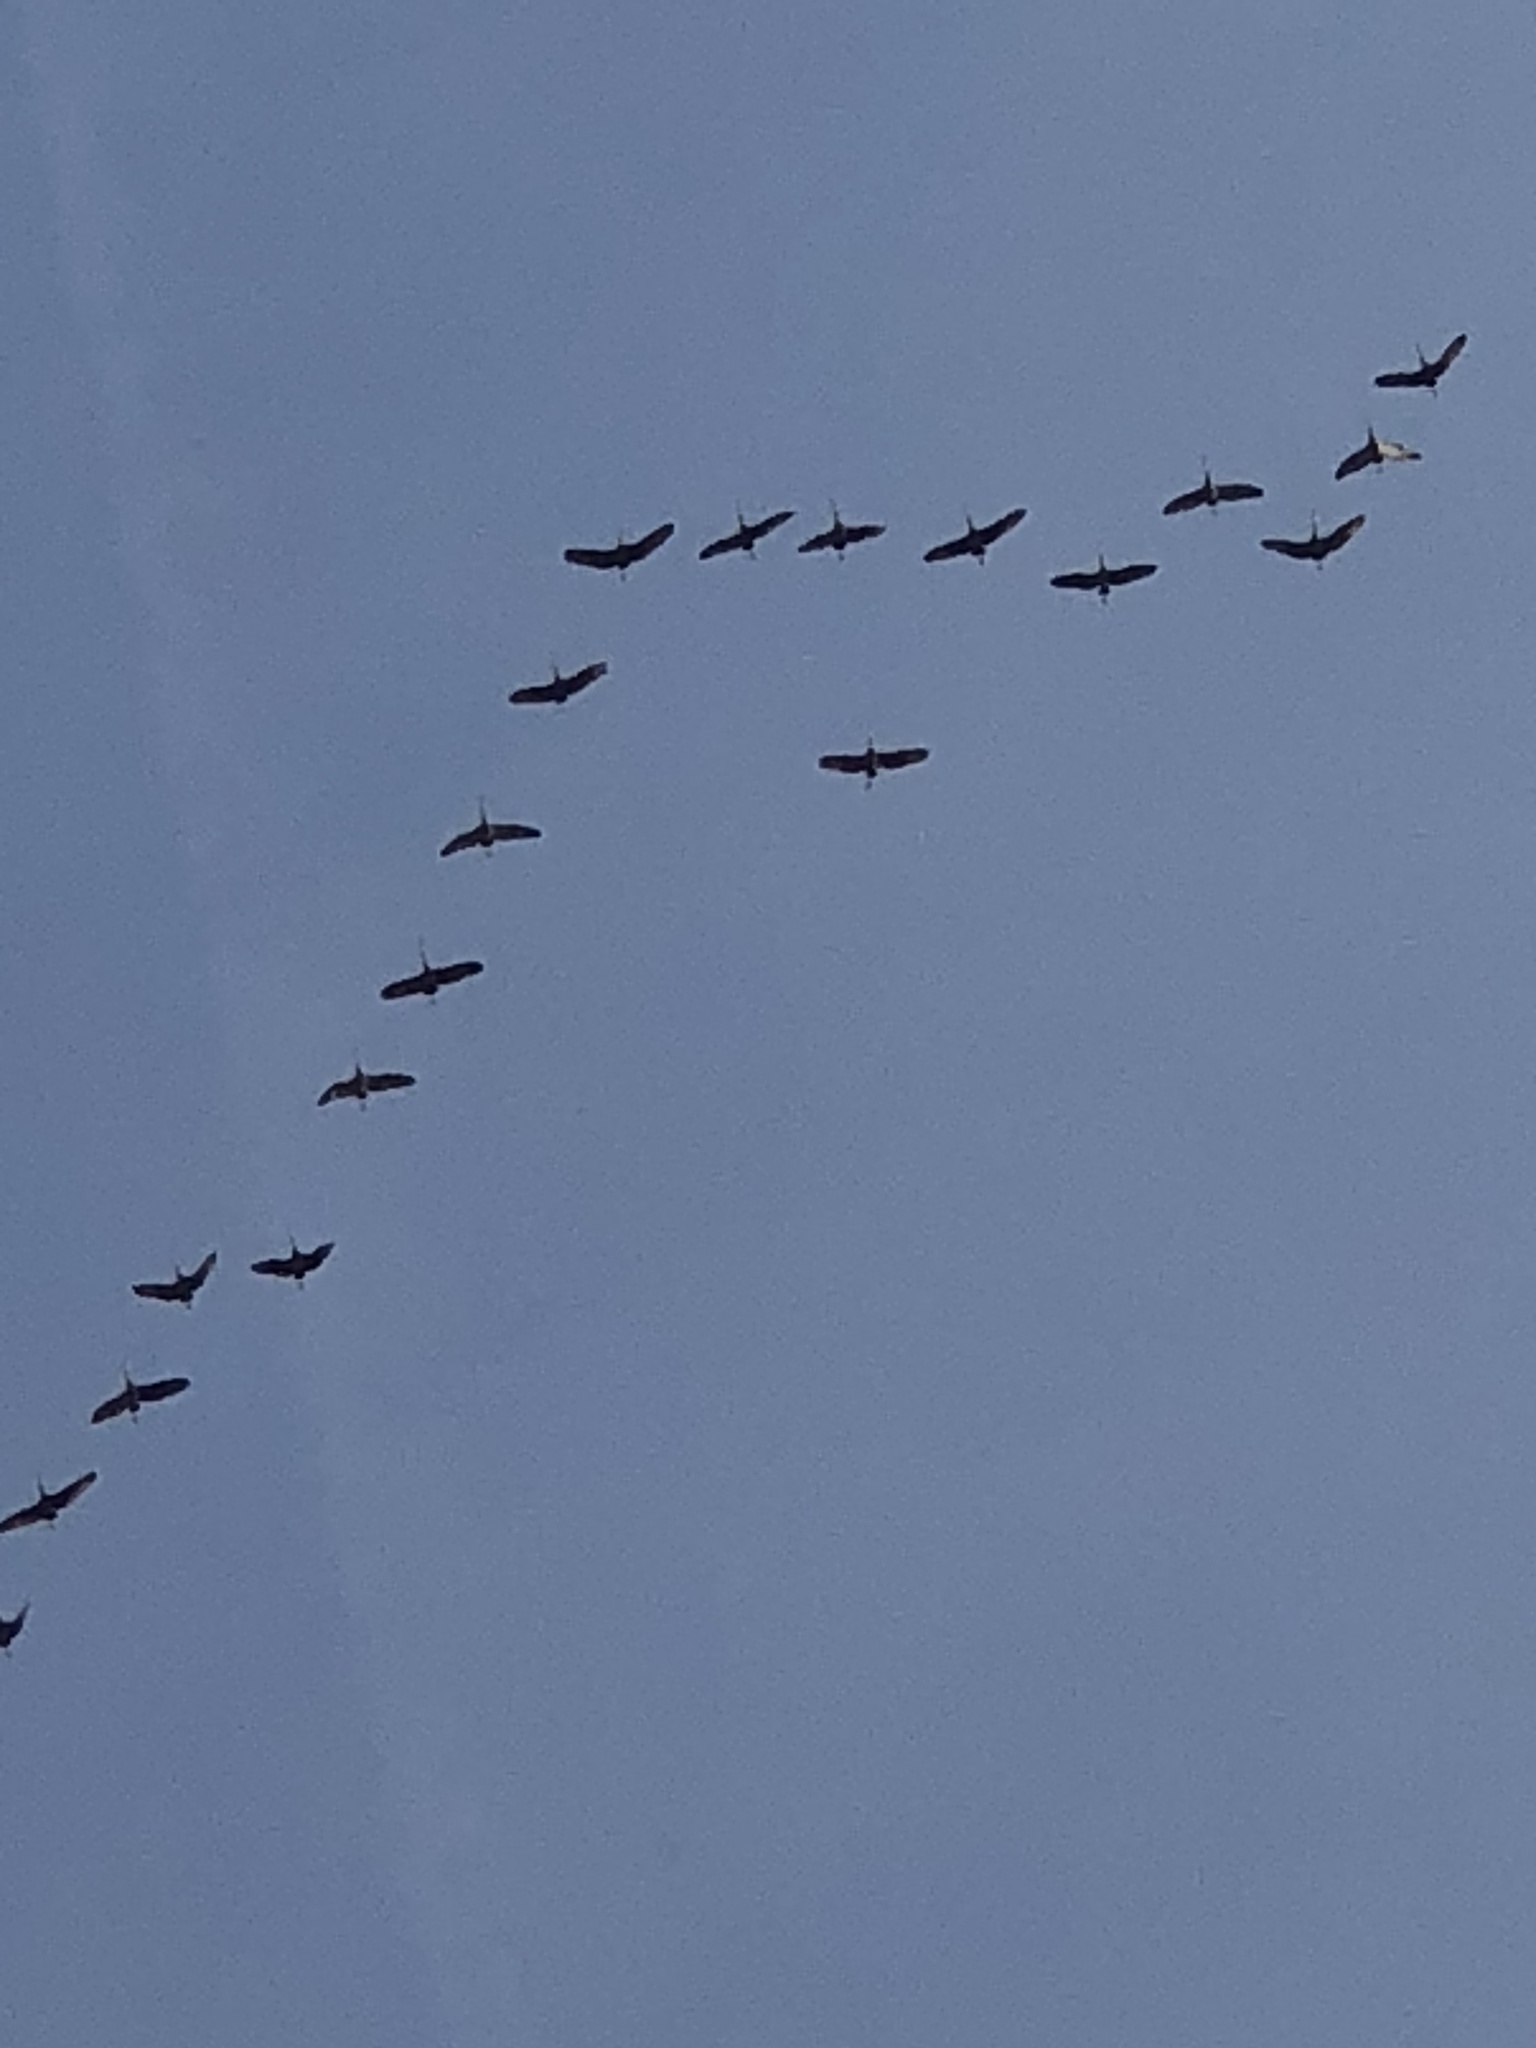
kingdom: Animalia
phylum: Chordata
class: Aves
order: Gruiformes
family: Gruidae
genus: Grus
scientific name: Grus canadensis
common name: Sandhill crane
